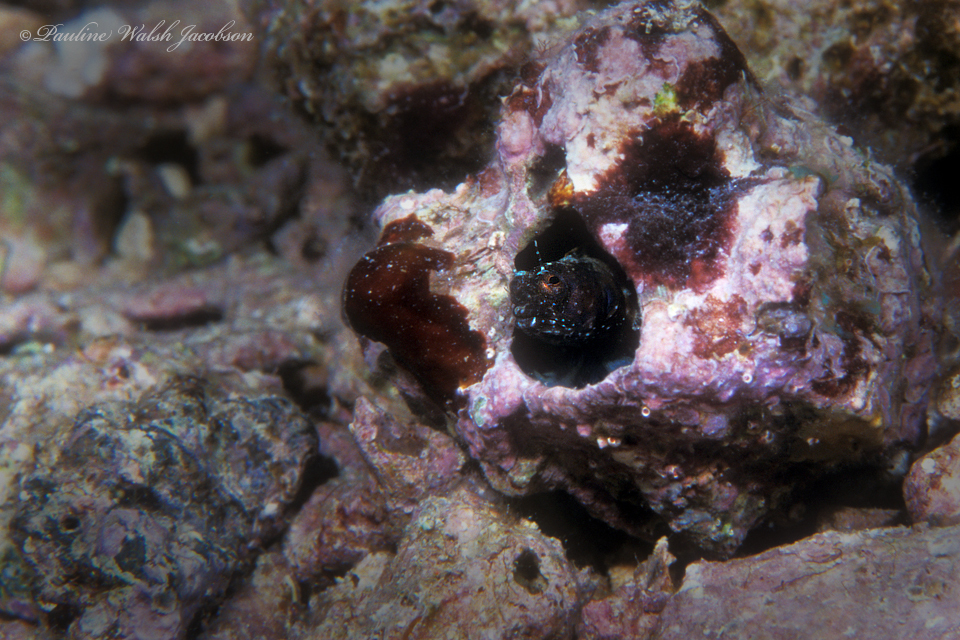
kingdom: Animalia
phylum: Chordata
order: Perciformes
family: Chaenopsidae
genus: Emblemaria
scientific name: Emblemaria pandionis
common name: Sailfin blenny
